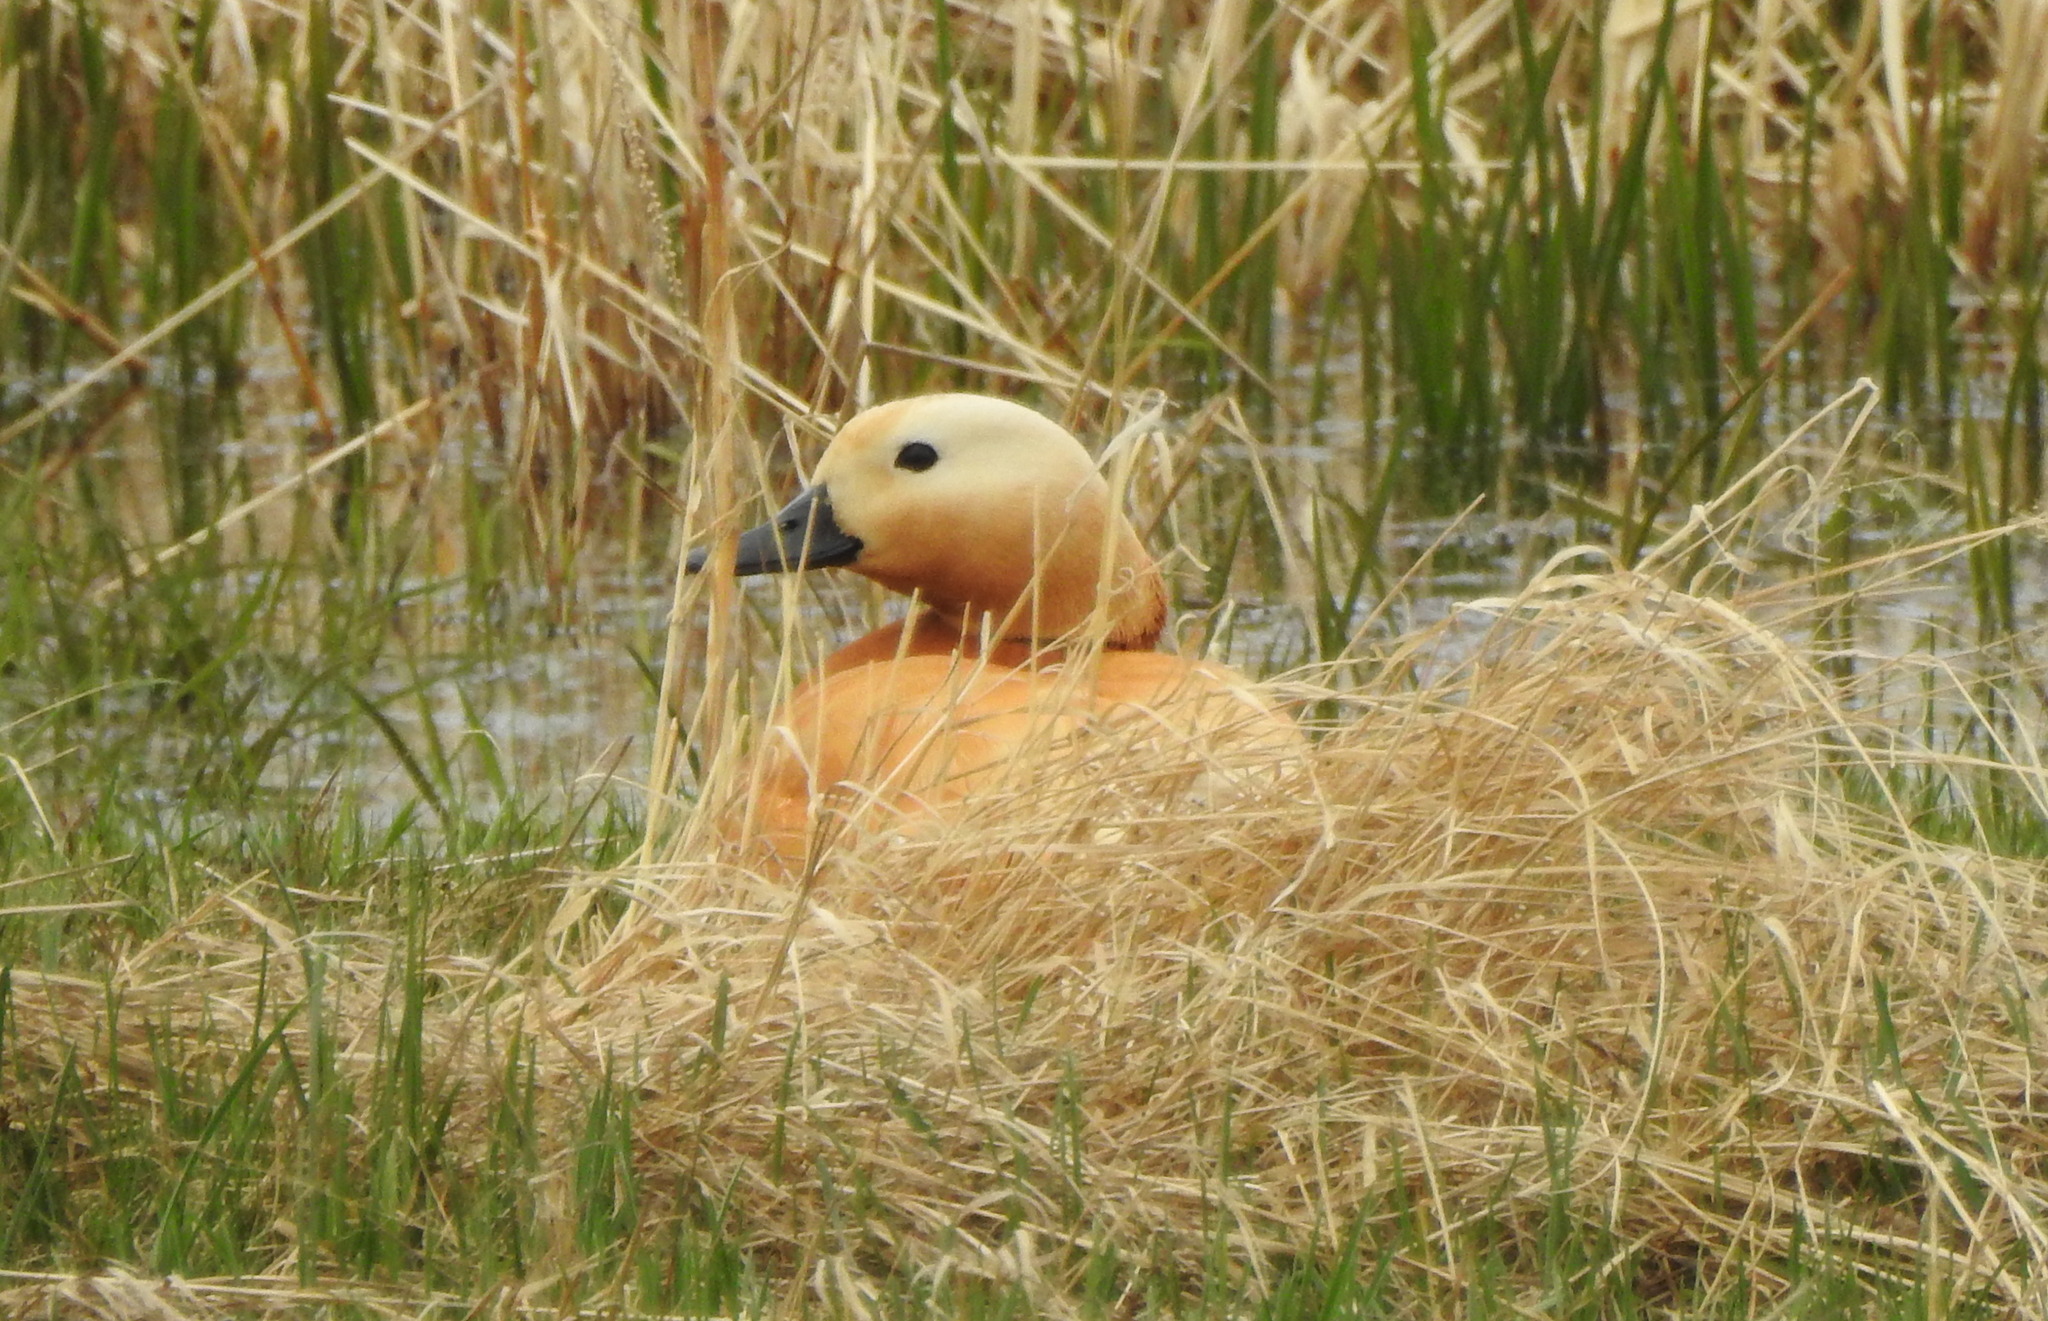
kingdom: Animalia
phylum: Chordata
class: Aves
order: Anseriformes
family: Anatidae
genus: Tadorna
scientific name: Tadorna ferruginea
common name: Ruddy shelduck
